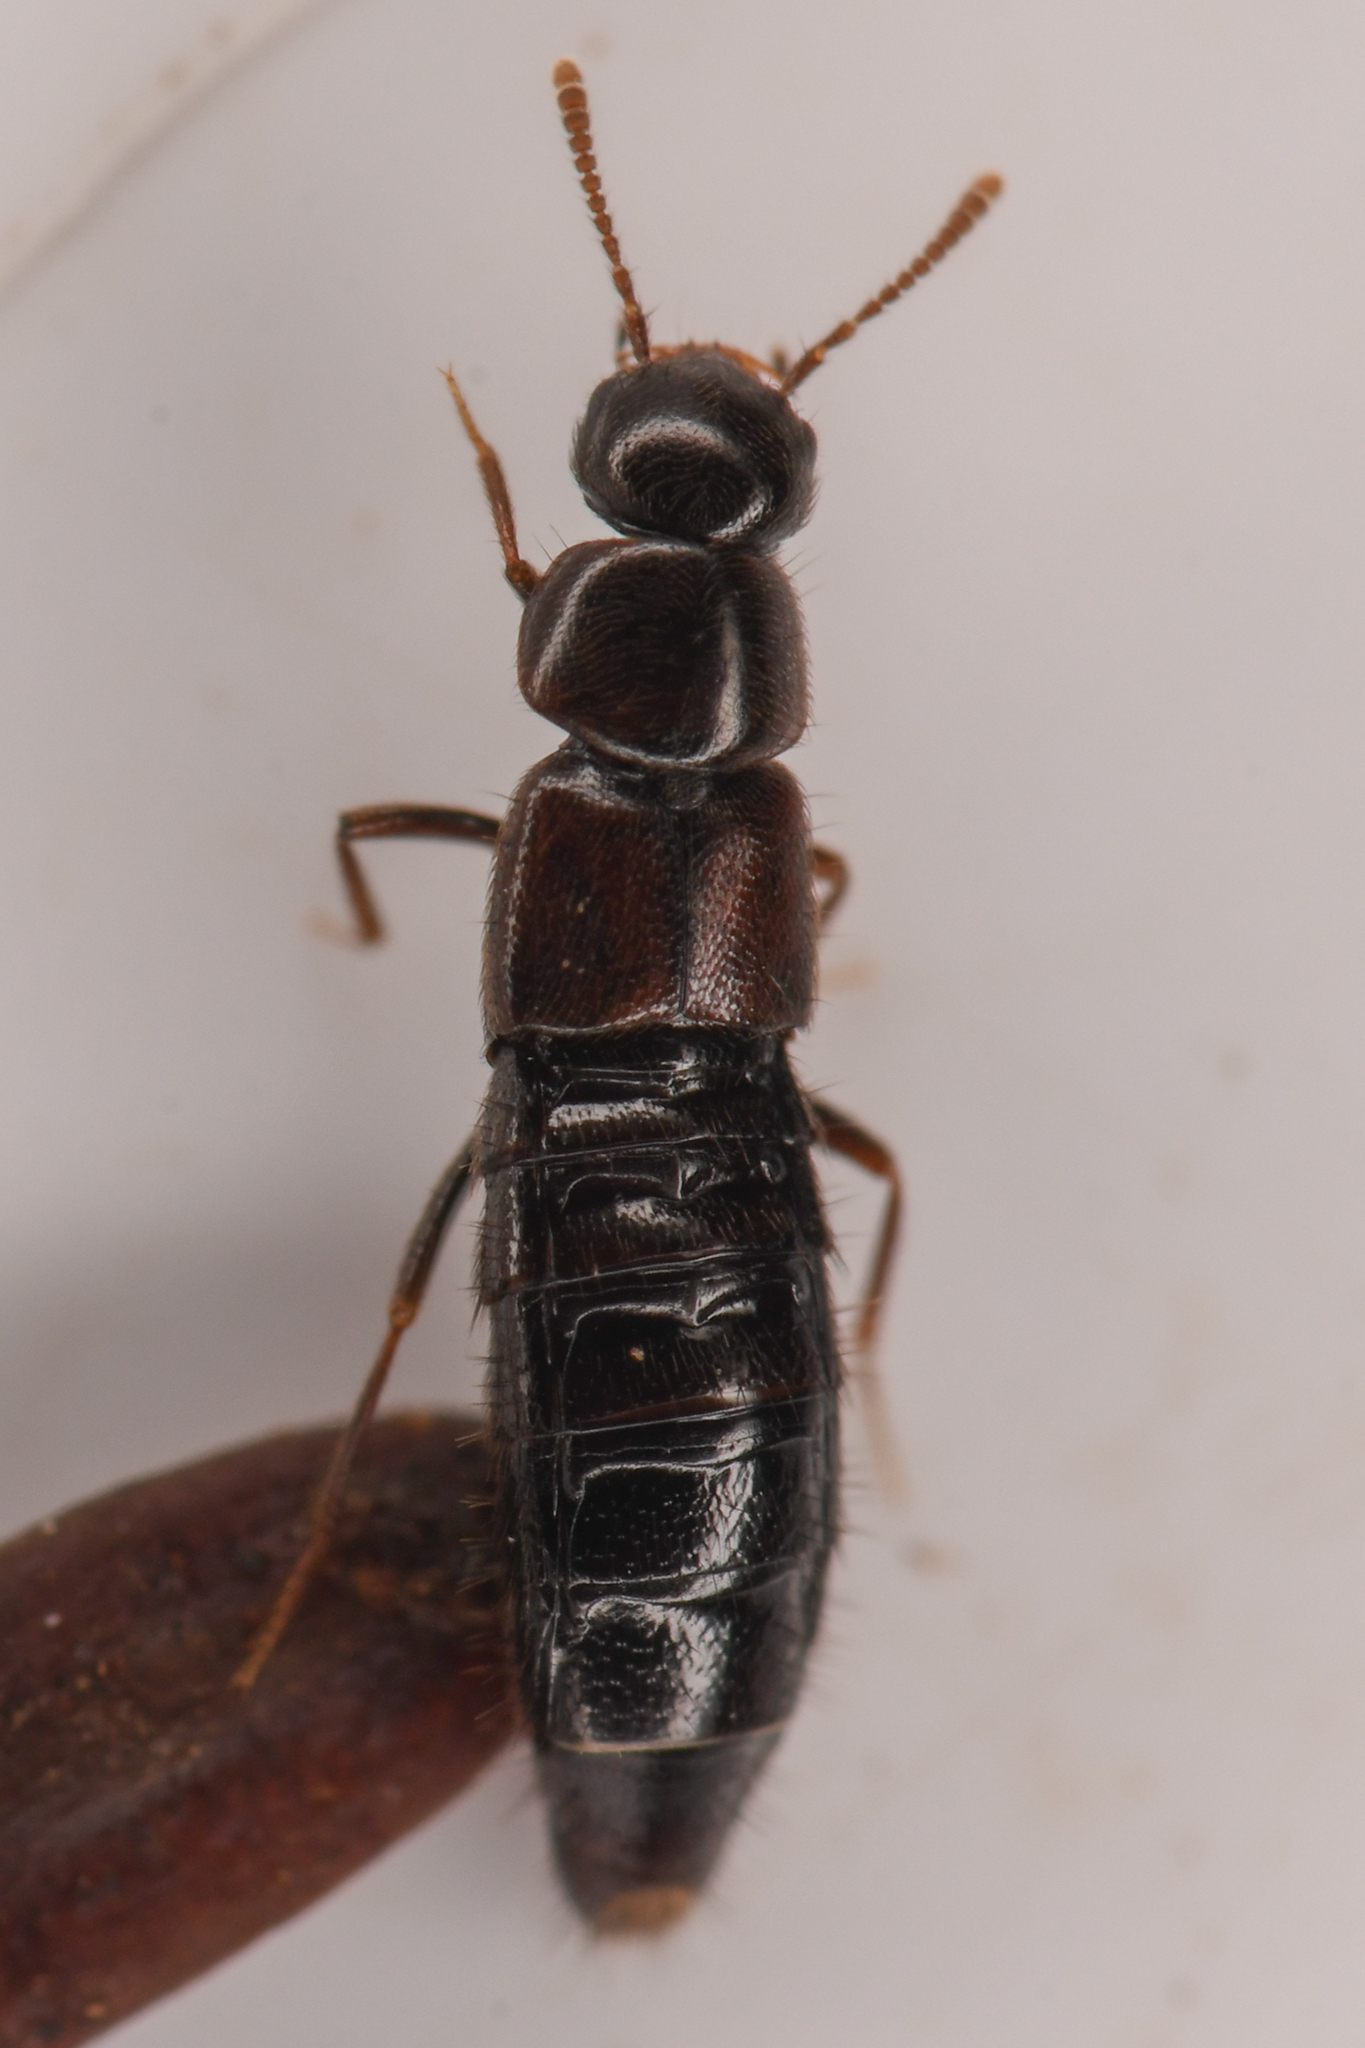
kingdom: Animalia
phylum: Arthropoda
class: Insecta
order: Coleoptera
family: Staphylinidae
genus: Gnathusa
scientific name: Gnathusa eva
